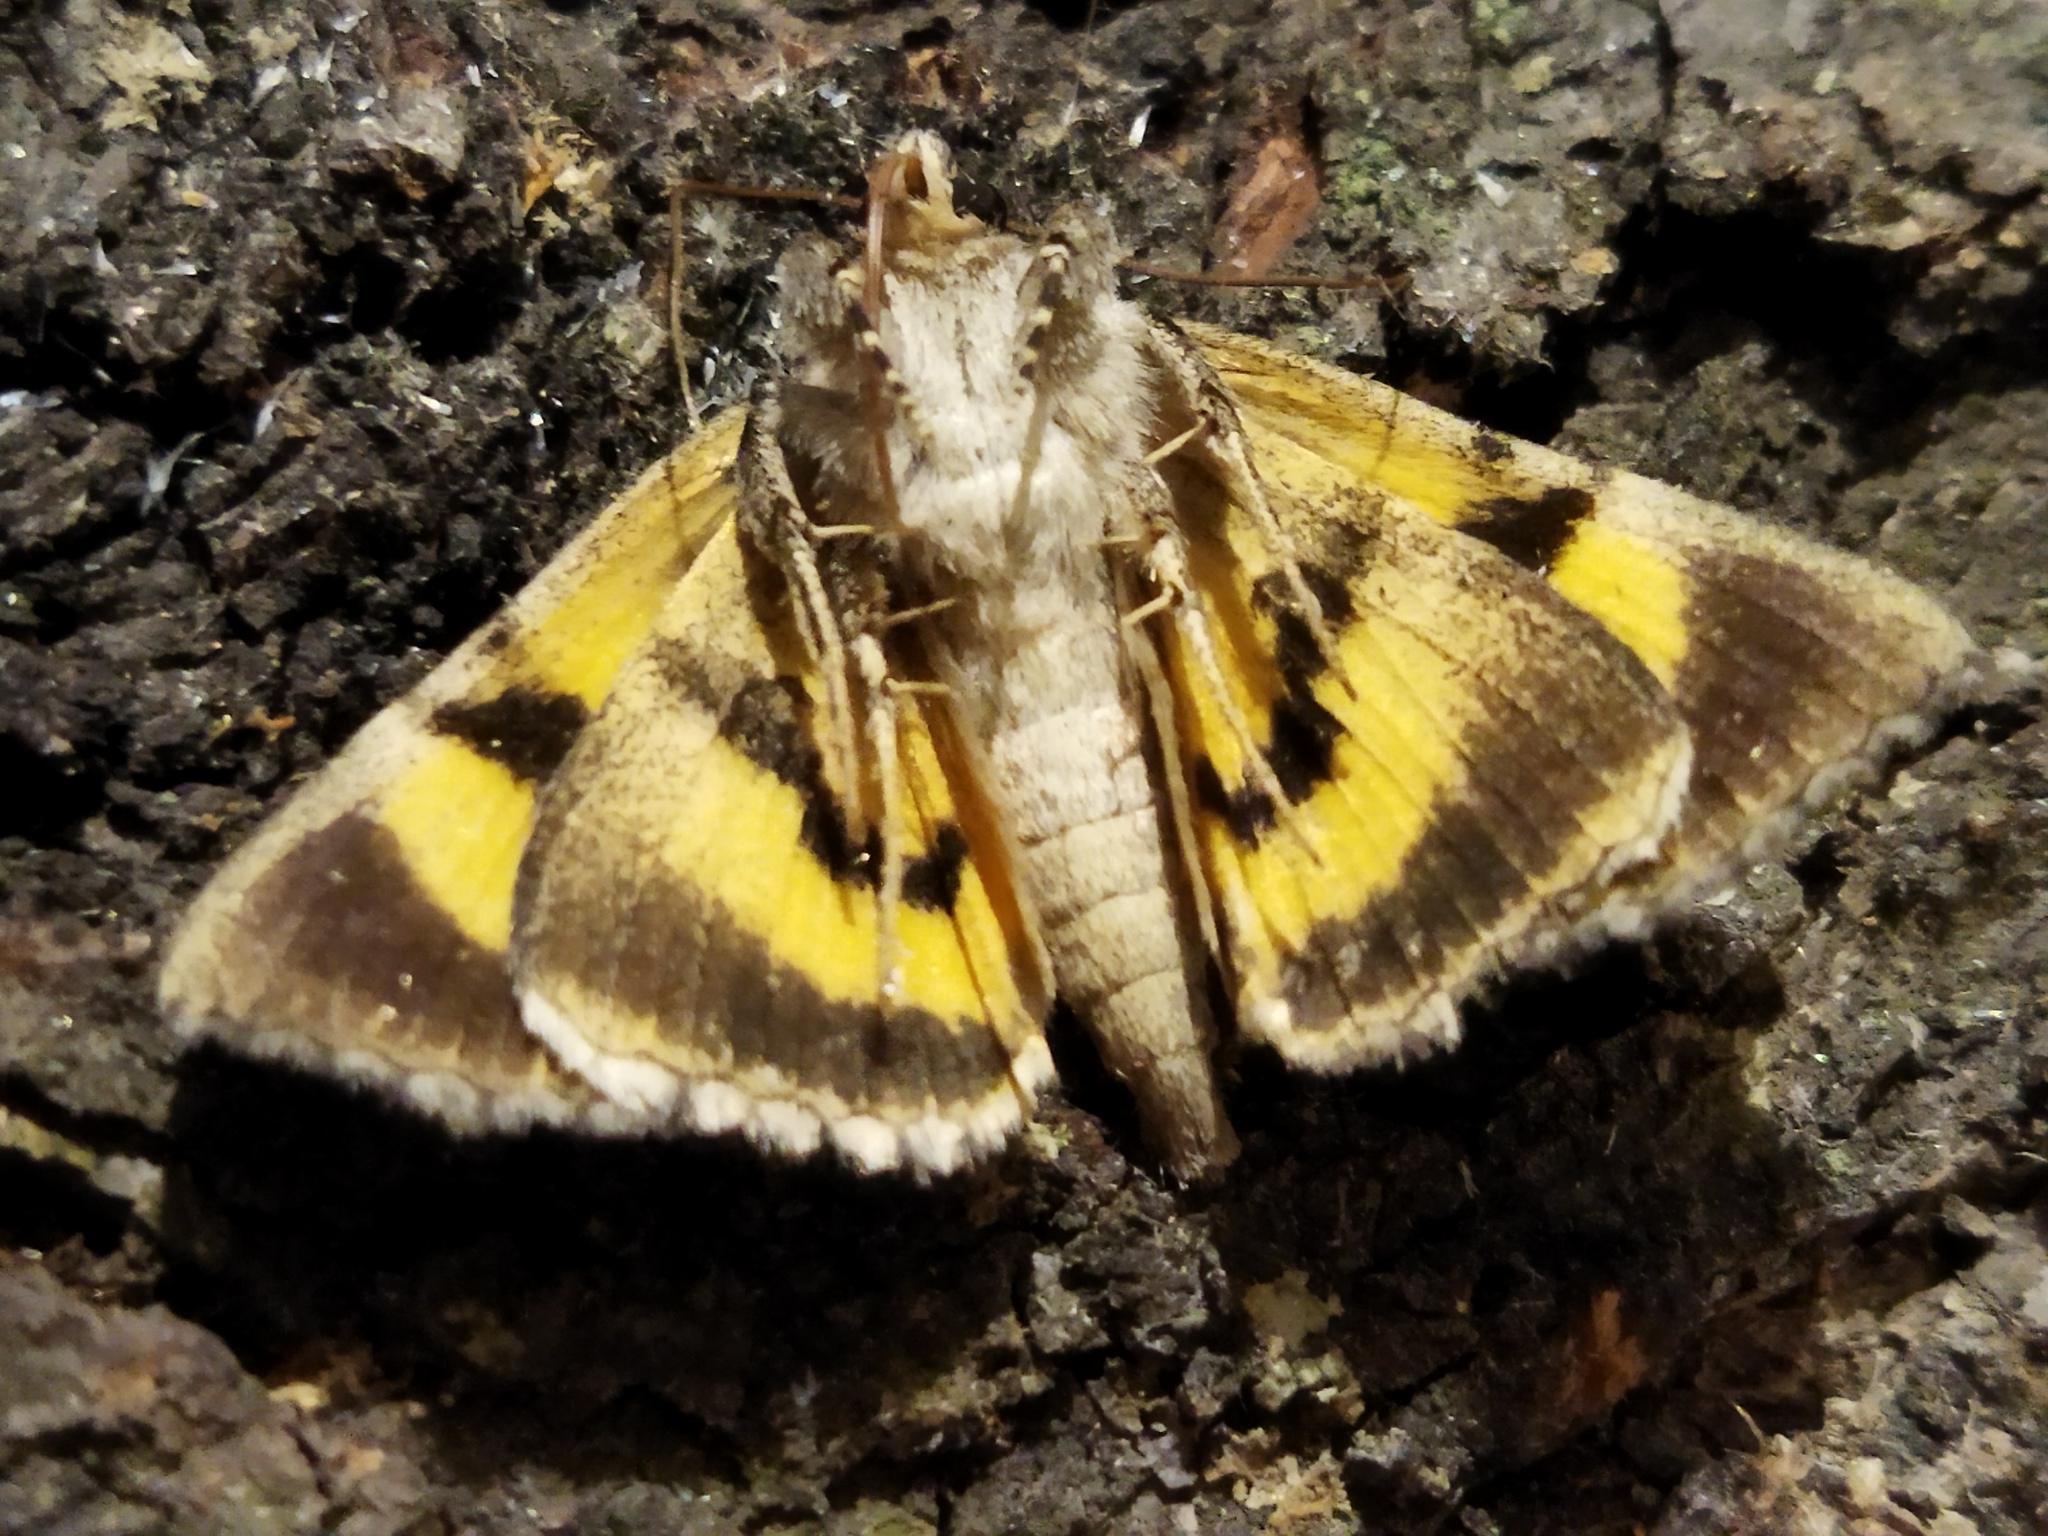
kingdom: Animalia
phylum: Arthropoda
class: Insecta
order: Lepidoptera
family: Erebidae
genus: Catocala
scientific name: Catocala hymenaea
